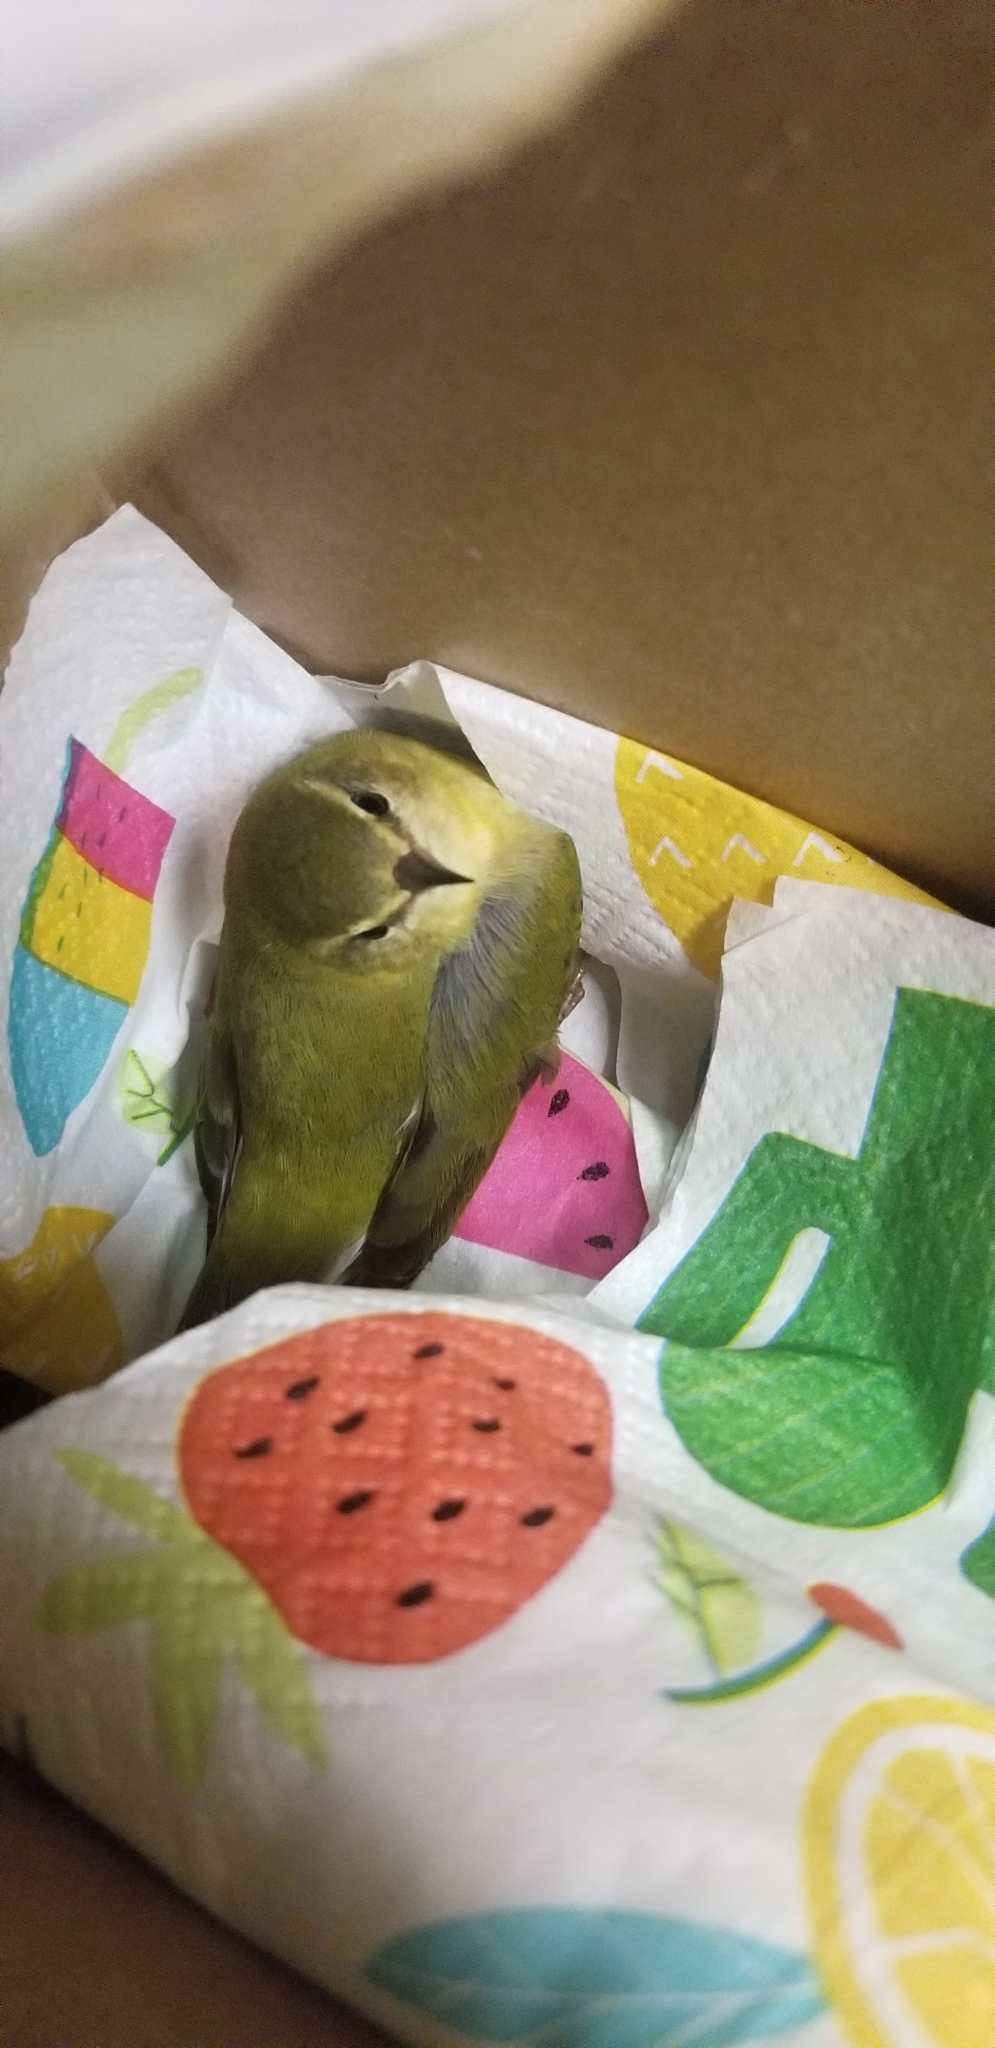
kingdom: Animalia
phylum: Chordata
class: Aves
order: Passeriformes
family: Parulidae
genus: Leiothlypis
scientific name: Leiothlypis peregrina
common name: Tennessee warbler
